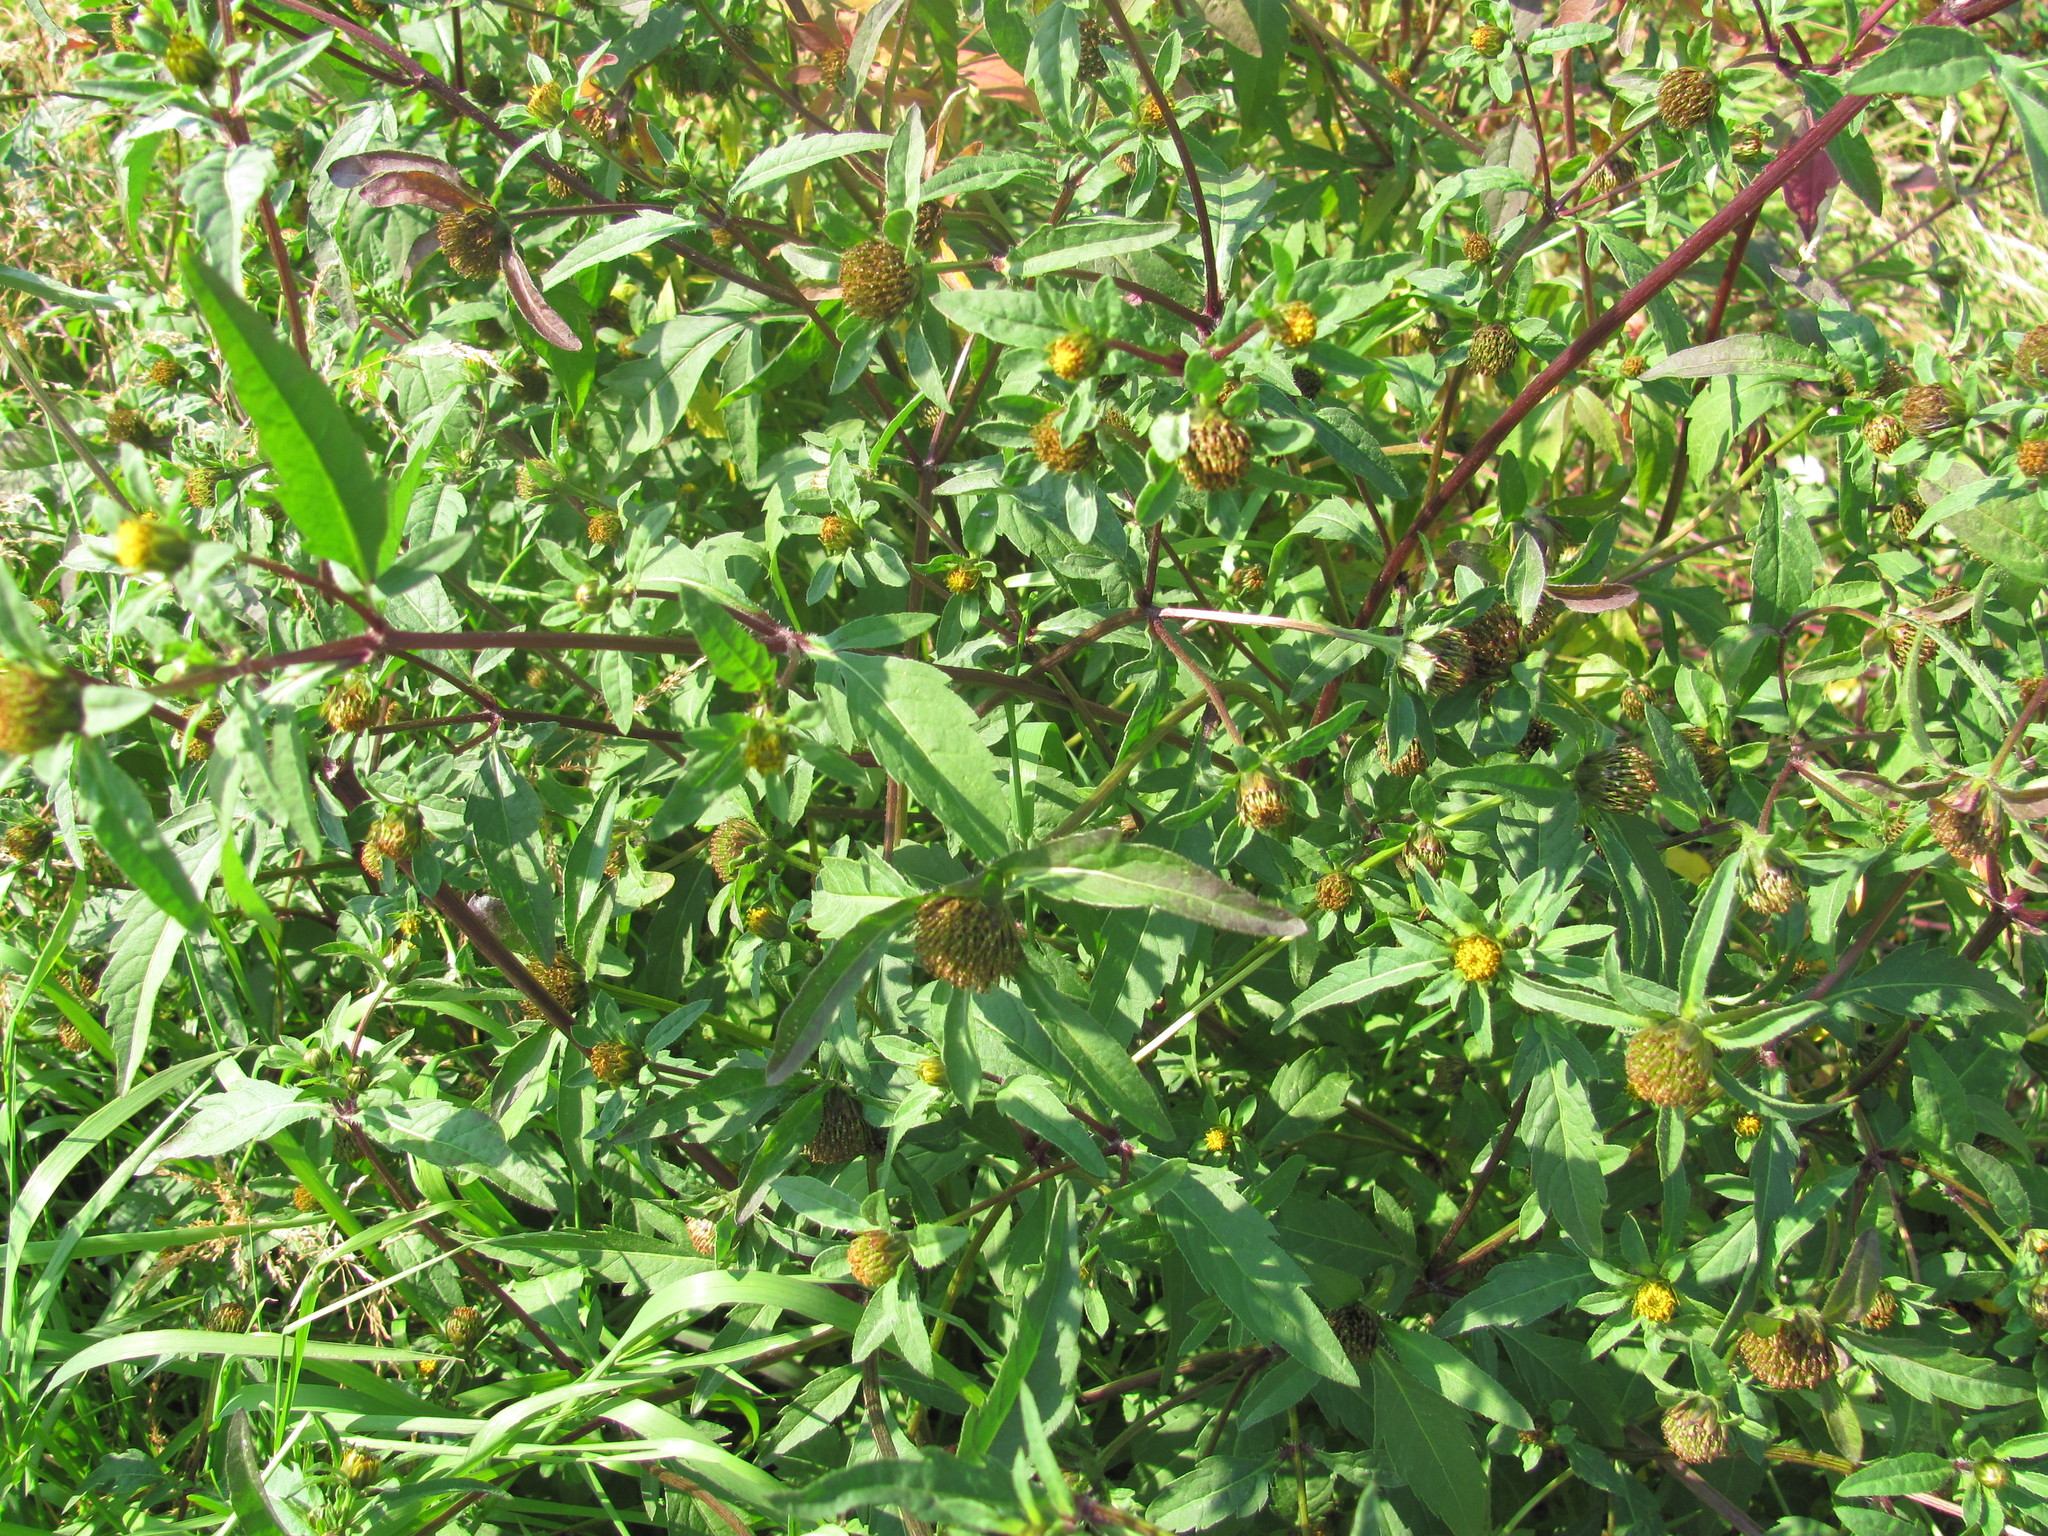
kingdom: Plantae
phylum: Tracheophyta
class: Magnoliopsida
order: Asterales
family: Asteraceae
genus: Bidens
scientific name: Bidens tripartita
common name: Trifid bur-marigold
